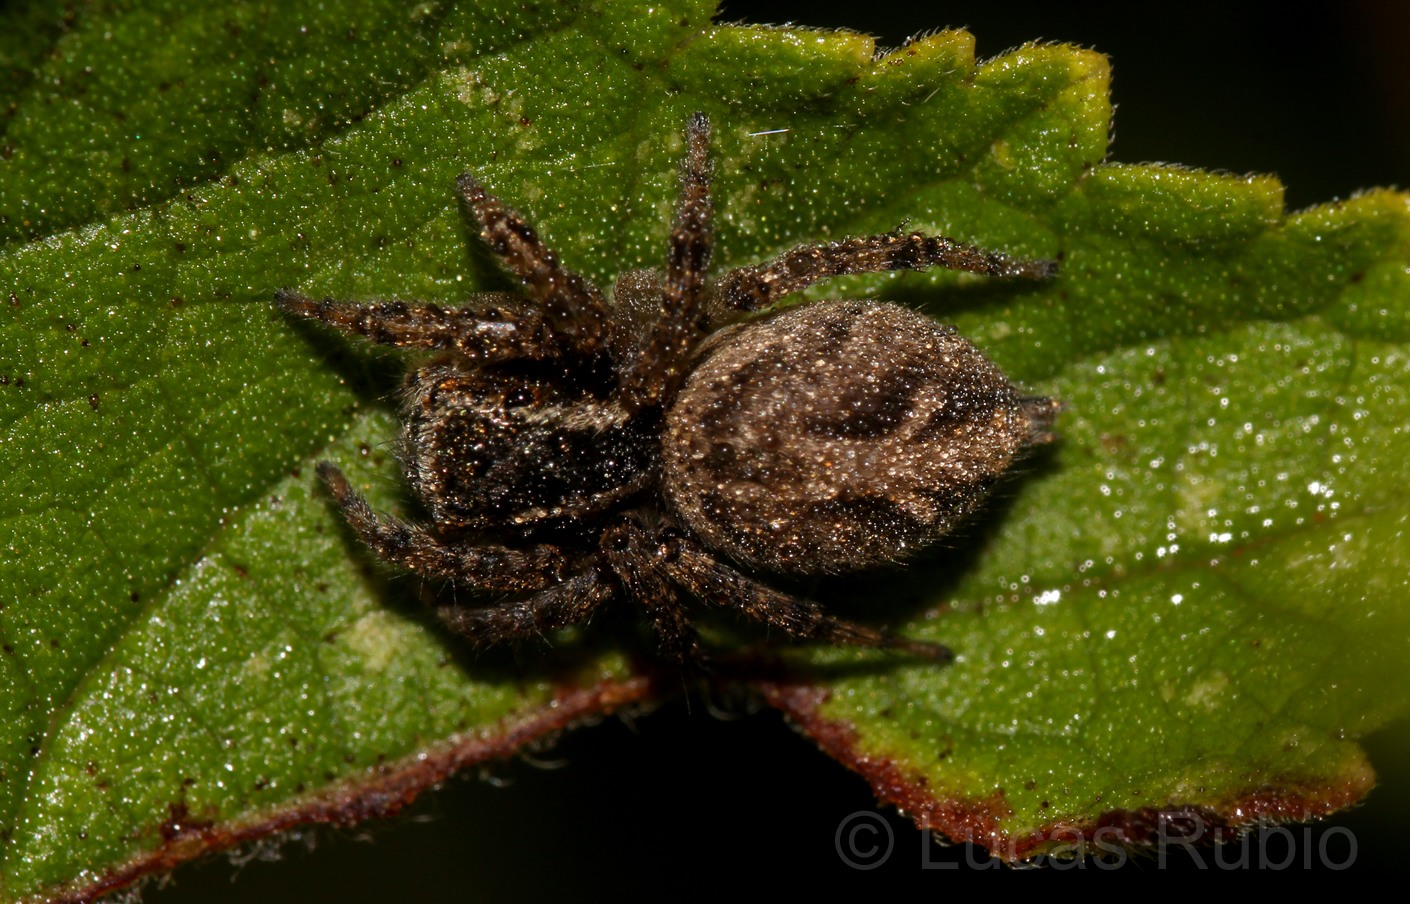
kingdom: Animalia
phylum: Arthropoda
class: Arachnida
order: Araneae
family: Salticidae
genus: Aphirape
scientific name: Aphirape
